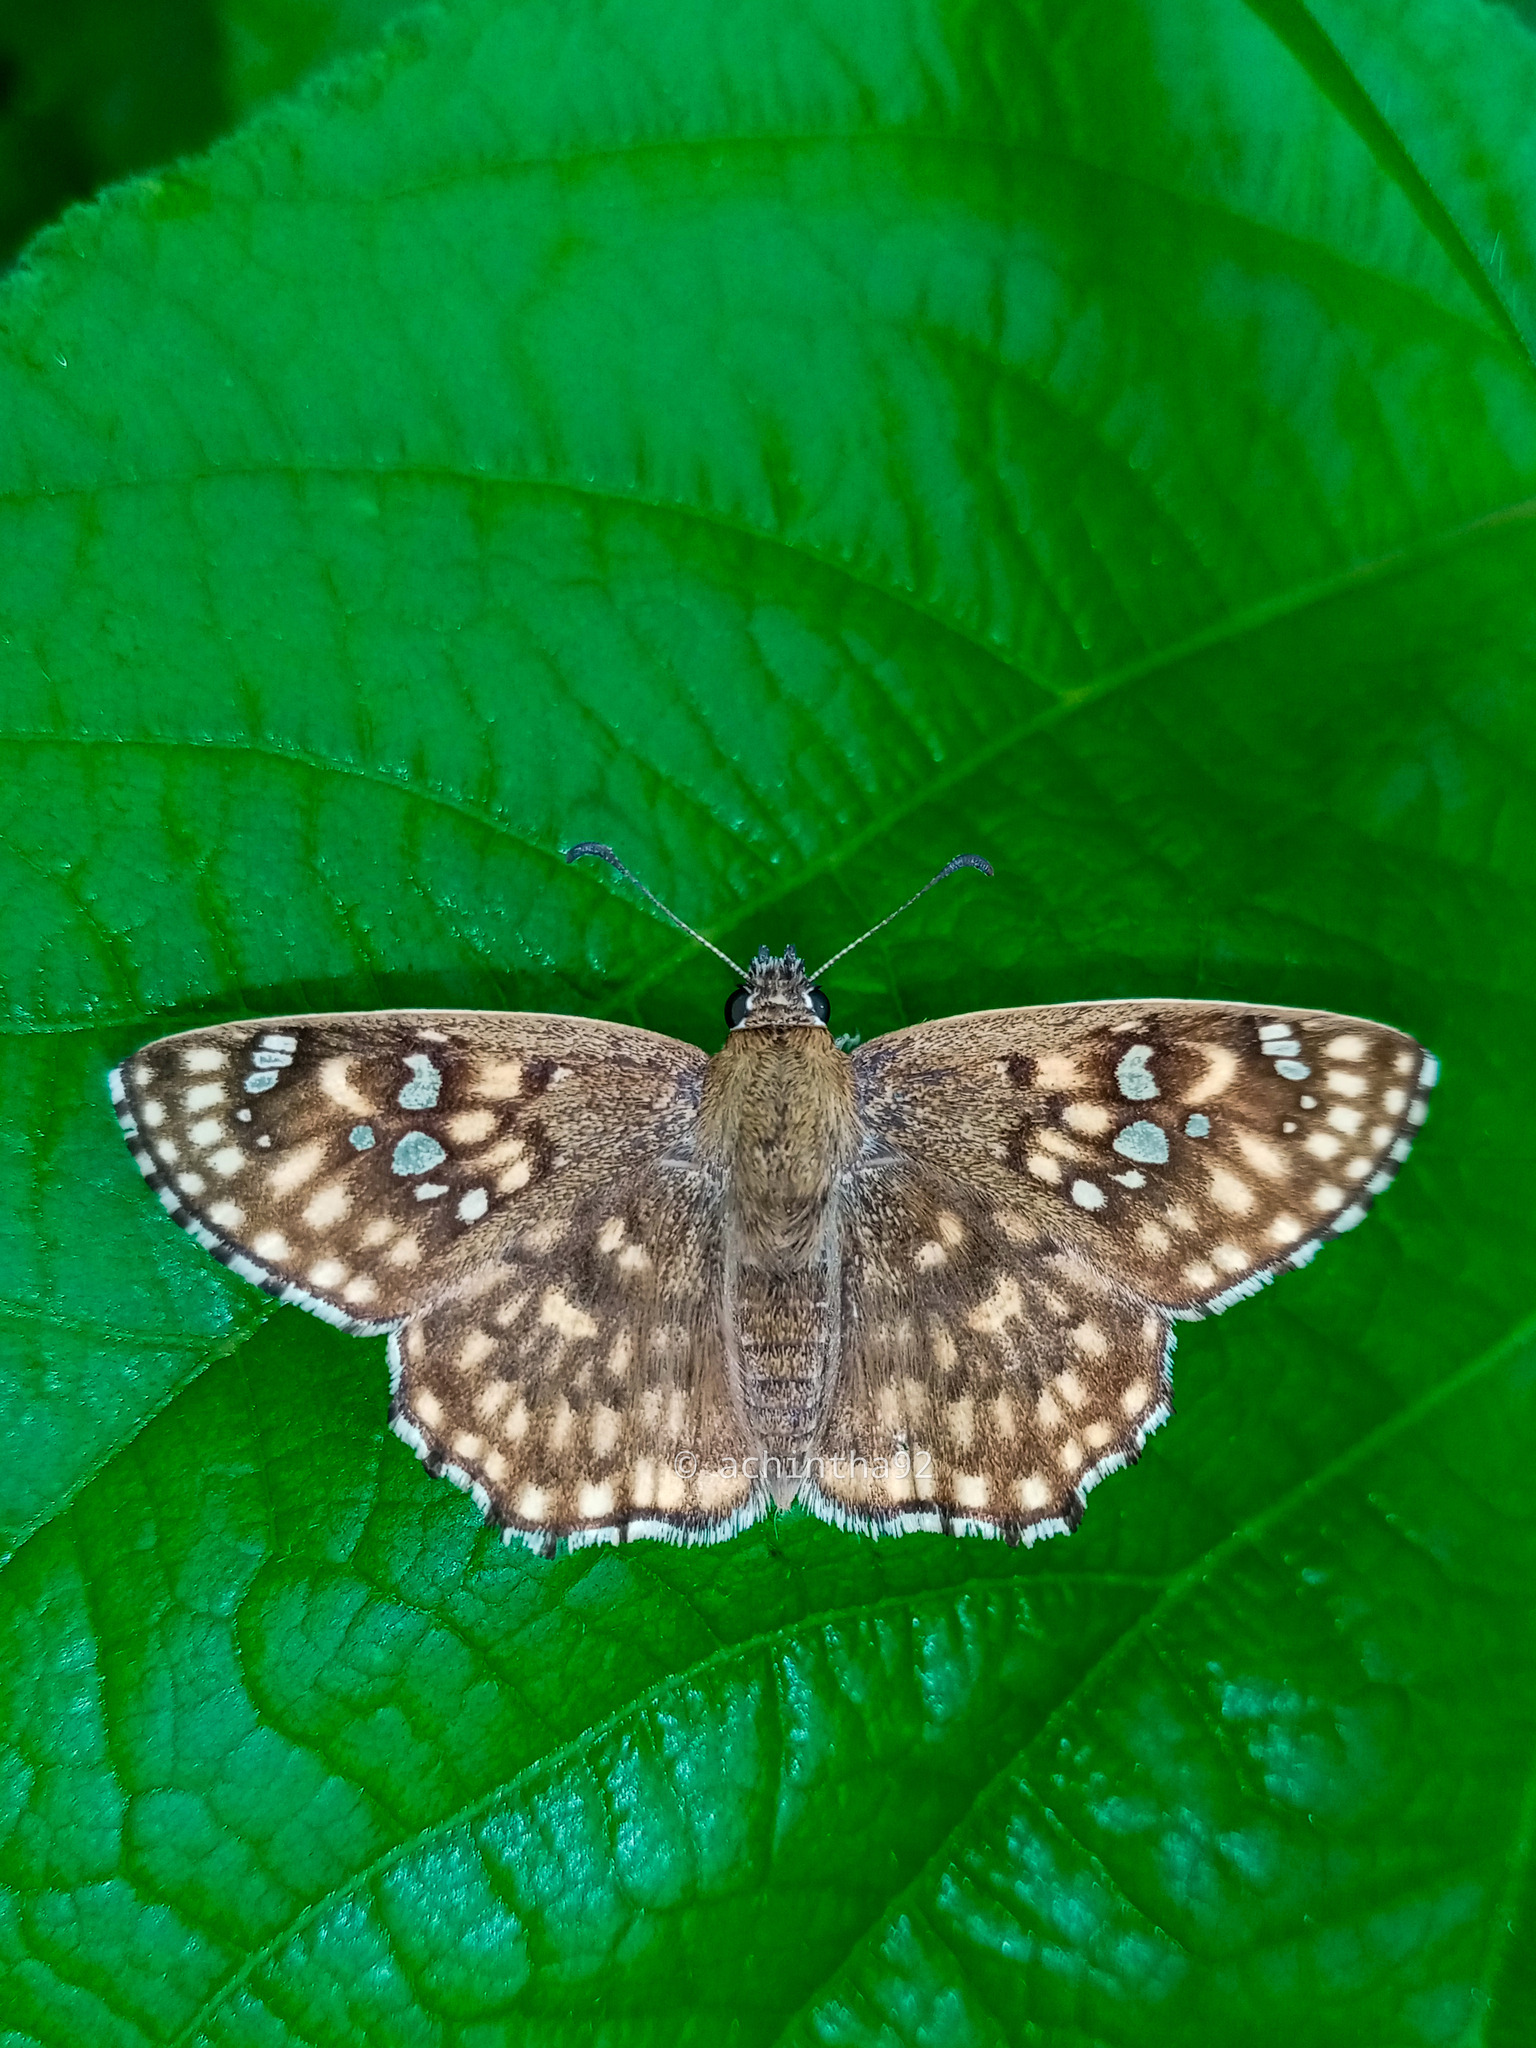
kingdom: Animalia
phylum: Arthropoda
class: Insecta
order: Lepidoptera
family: Hesperiidae
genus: Caprona
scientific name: Caprona alida
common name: Spotted angle
